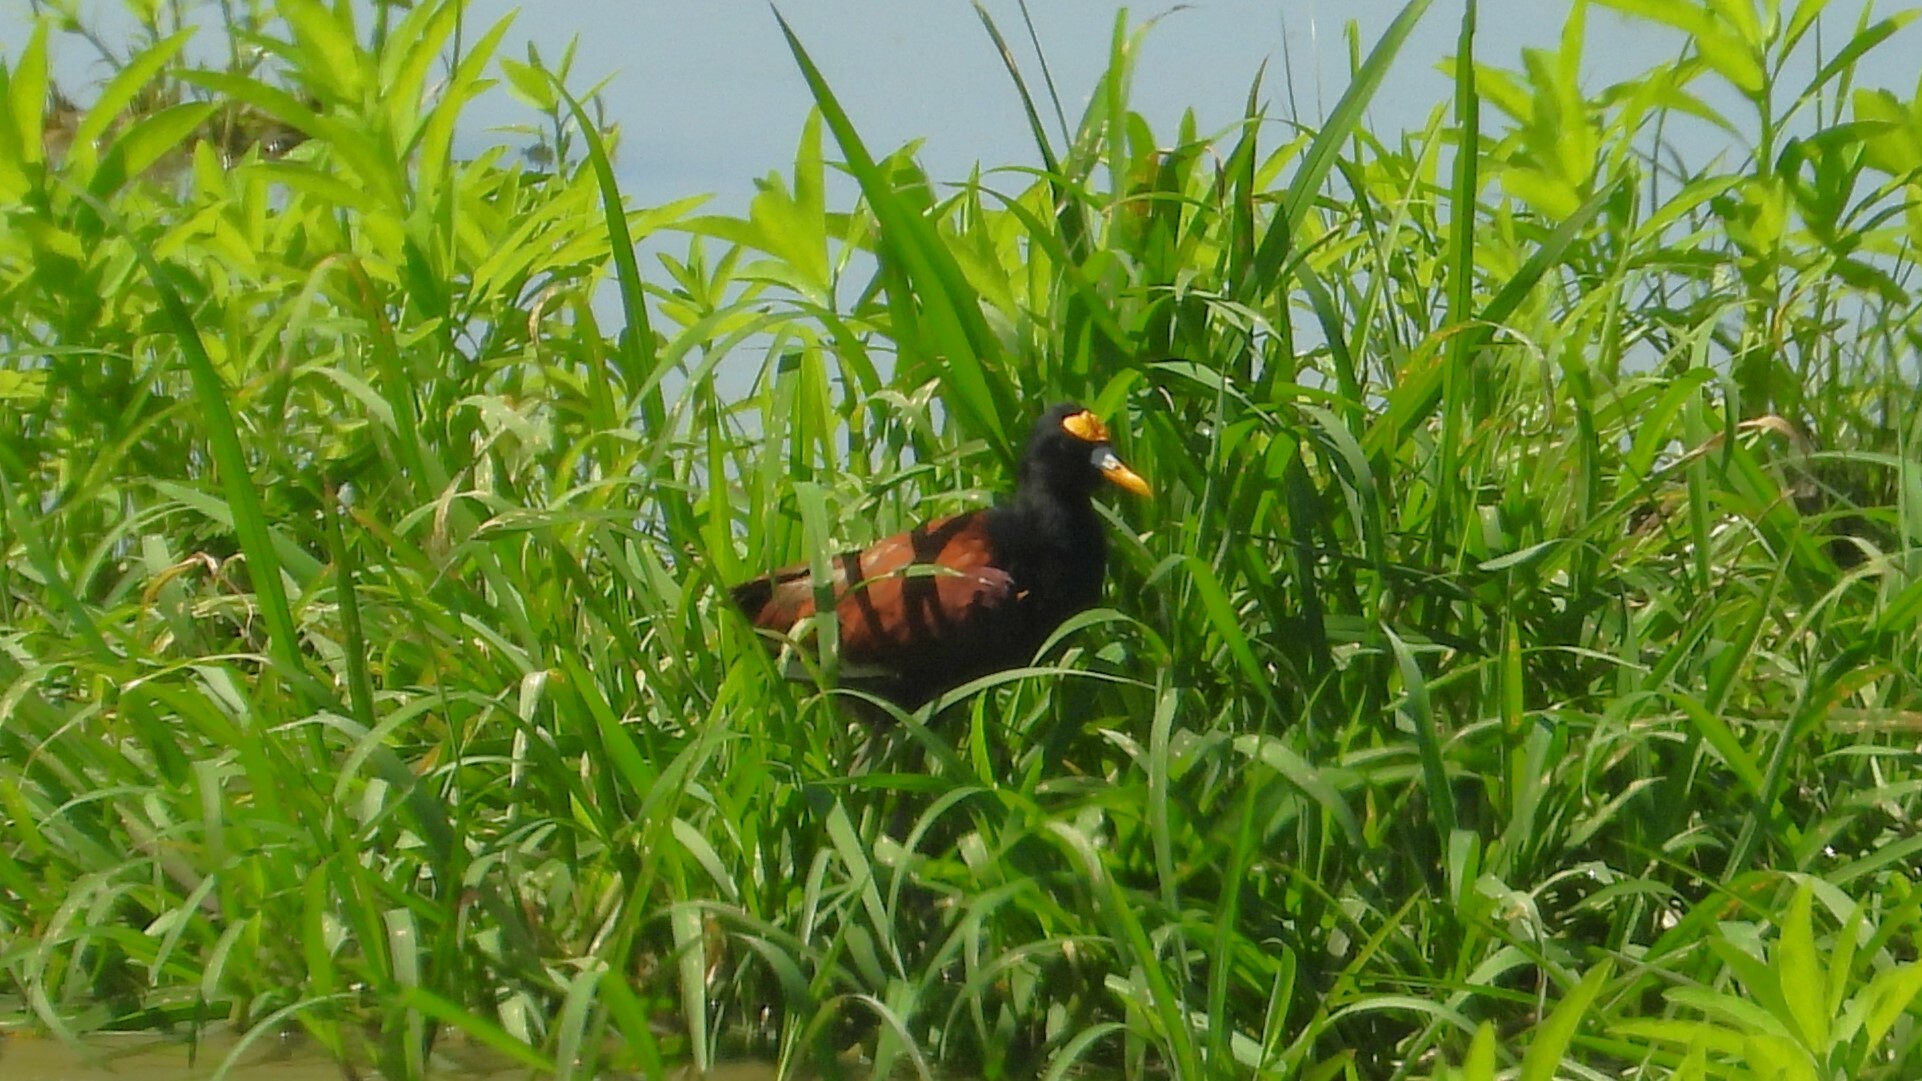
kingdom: Animalia
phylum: Chordata
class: Aves
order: Charadriiformes
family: Jacanidae
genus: Jacana
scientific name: Jacana spinosa
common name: Northern jacana
